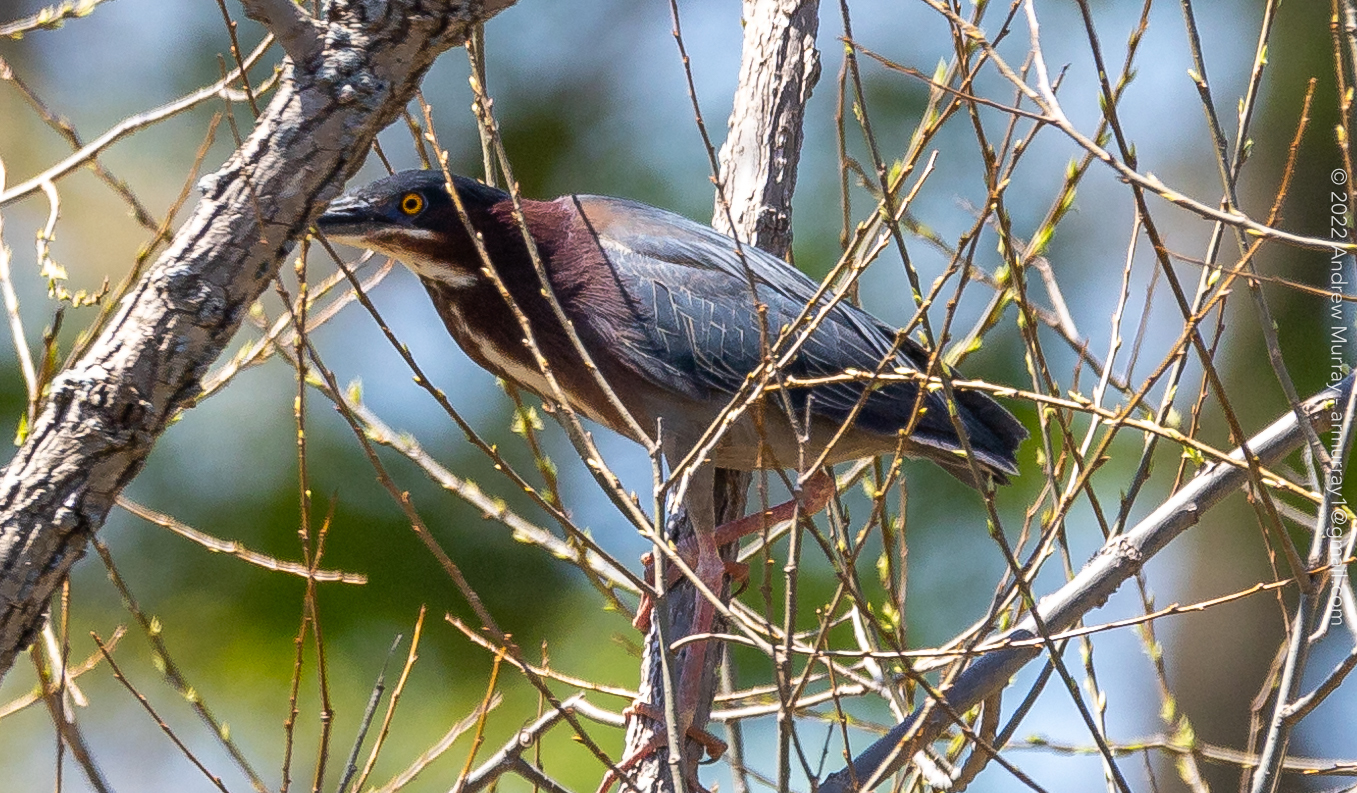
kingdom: Animalia
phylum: Chordata
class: Aves
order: Pelecaniformes
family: Ardeidae
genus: Butorides
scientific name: Butorides virescens
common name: Green heron
